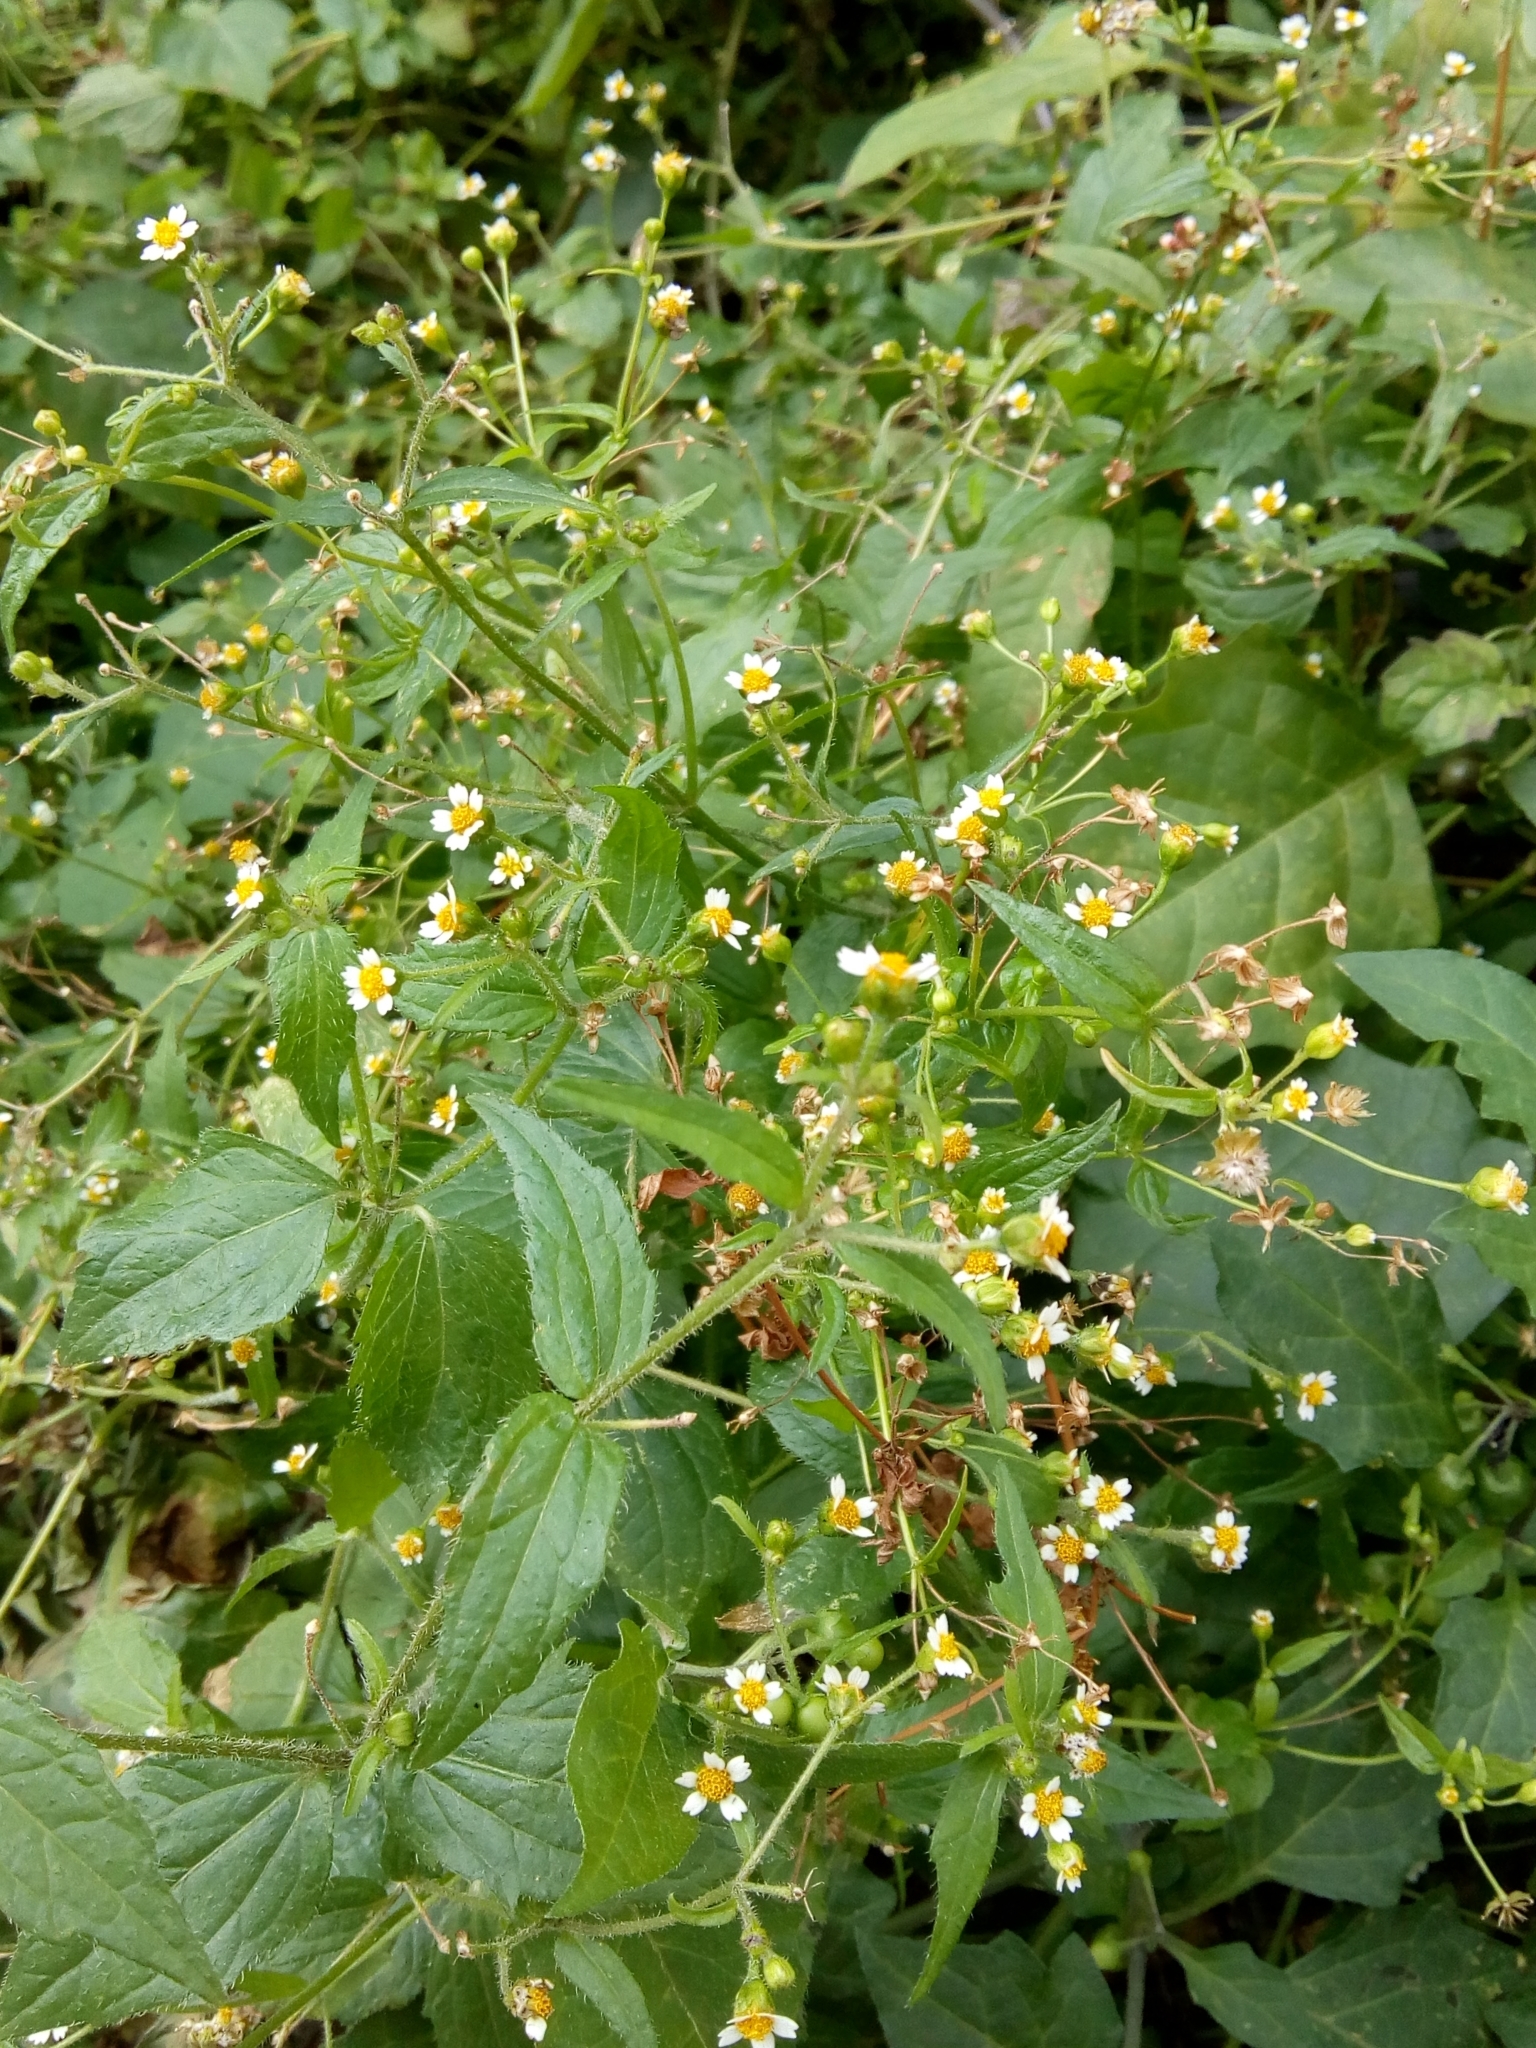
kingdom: Plantae
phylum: Tracheophyta
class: Magnoliopsida
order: Asterales
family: Asteraceae
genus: Galinsoga
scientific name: Galinsoga quadriradiata
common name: Shaggy soldier
